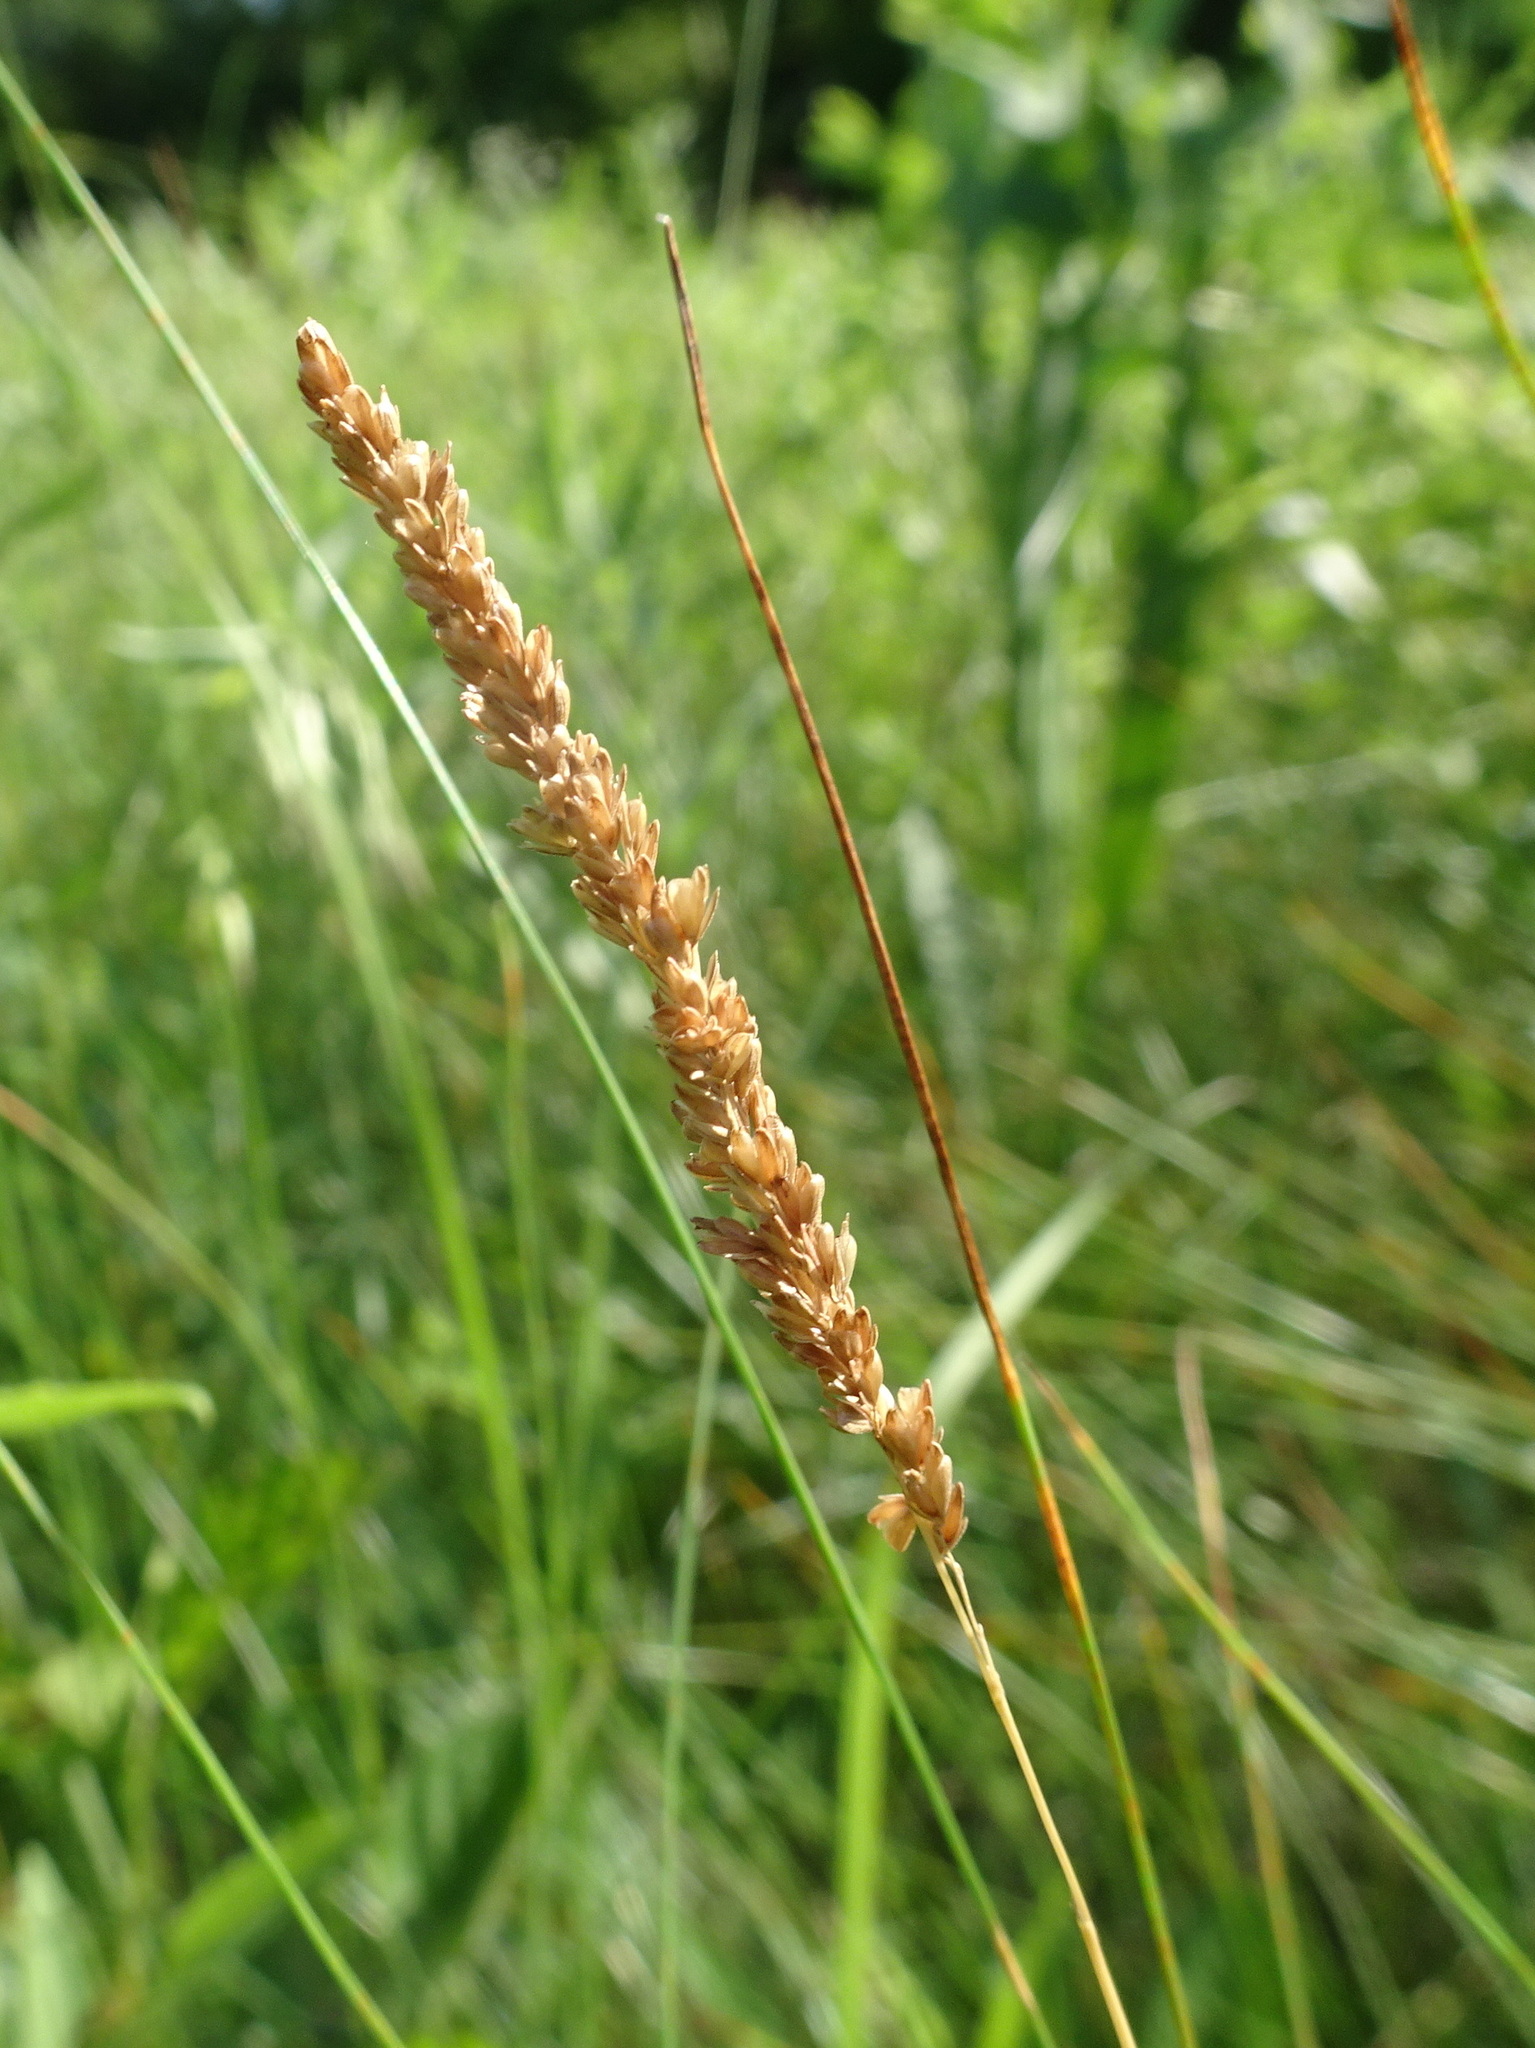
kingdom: Plantae
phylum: Tracheophyta
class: Liliopsida
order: Poales
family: Poaceae
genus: Sphenopholis
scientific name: Sphenopholis obtusata
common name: Prairie grass
